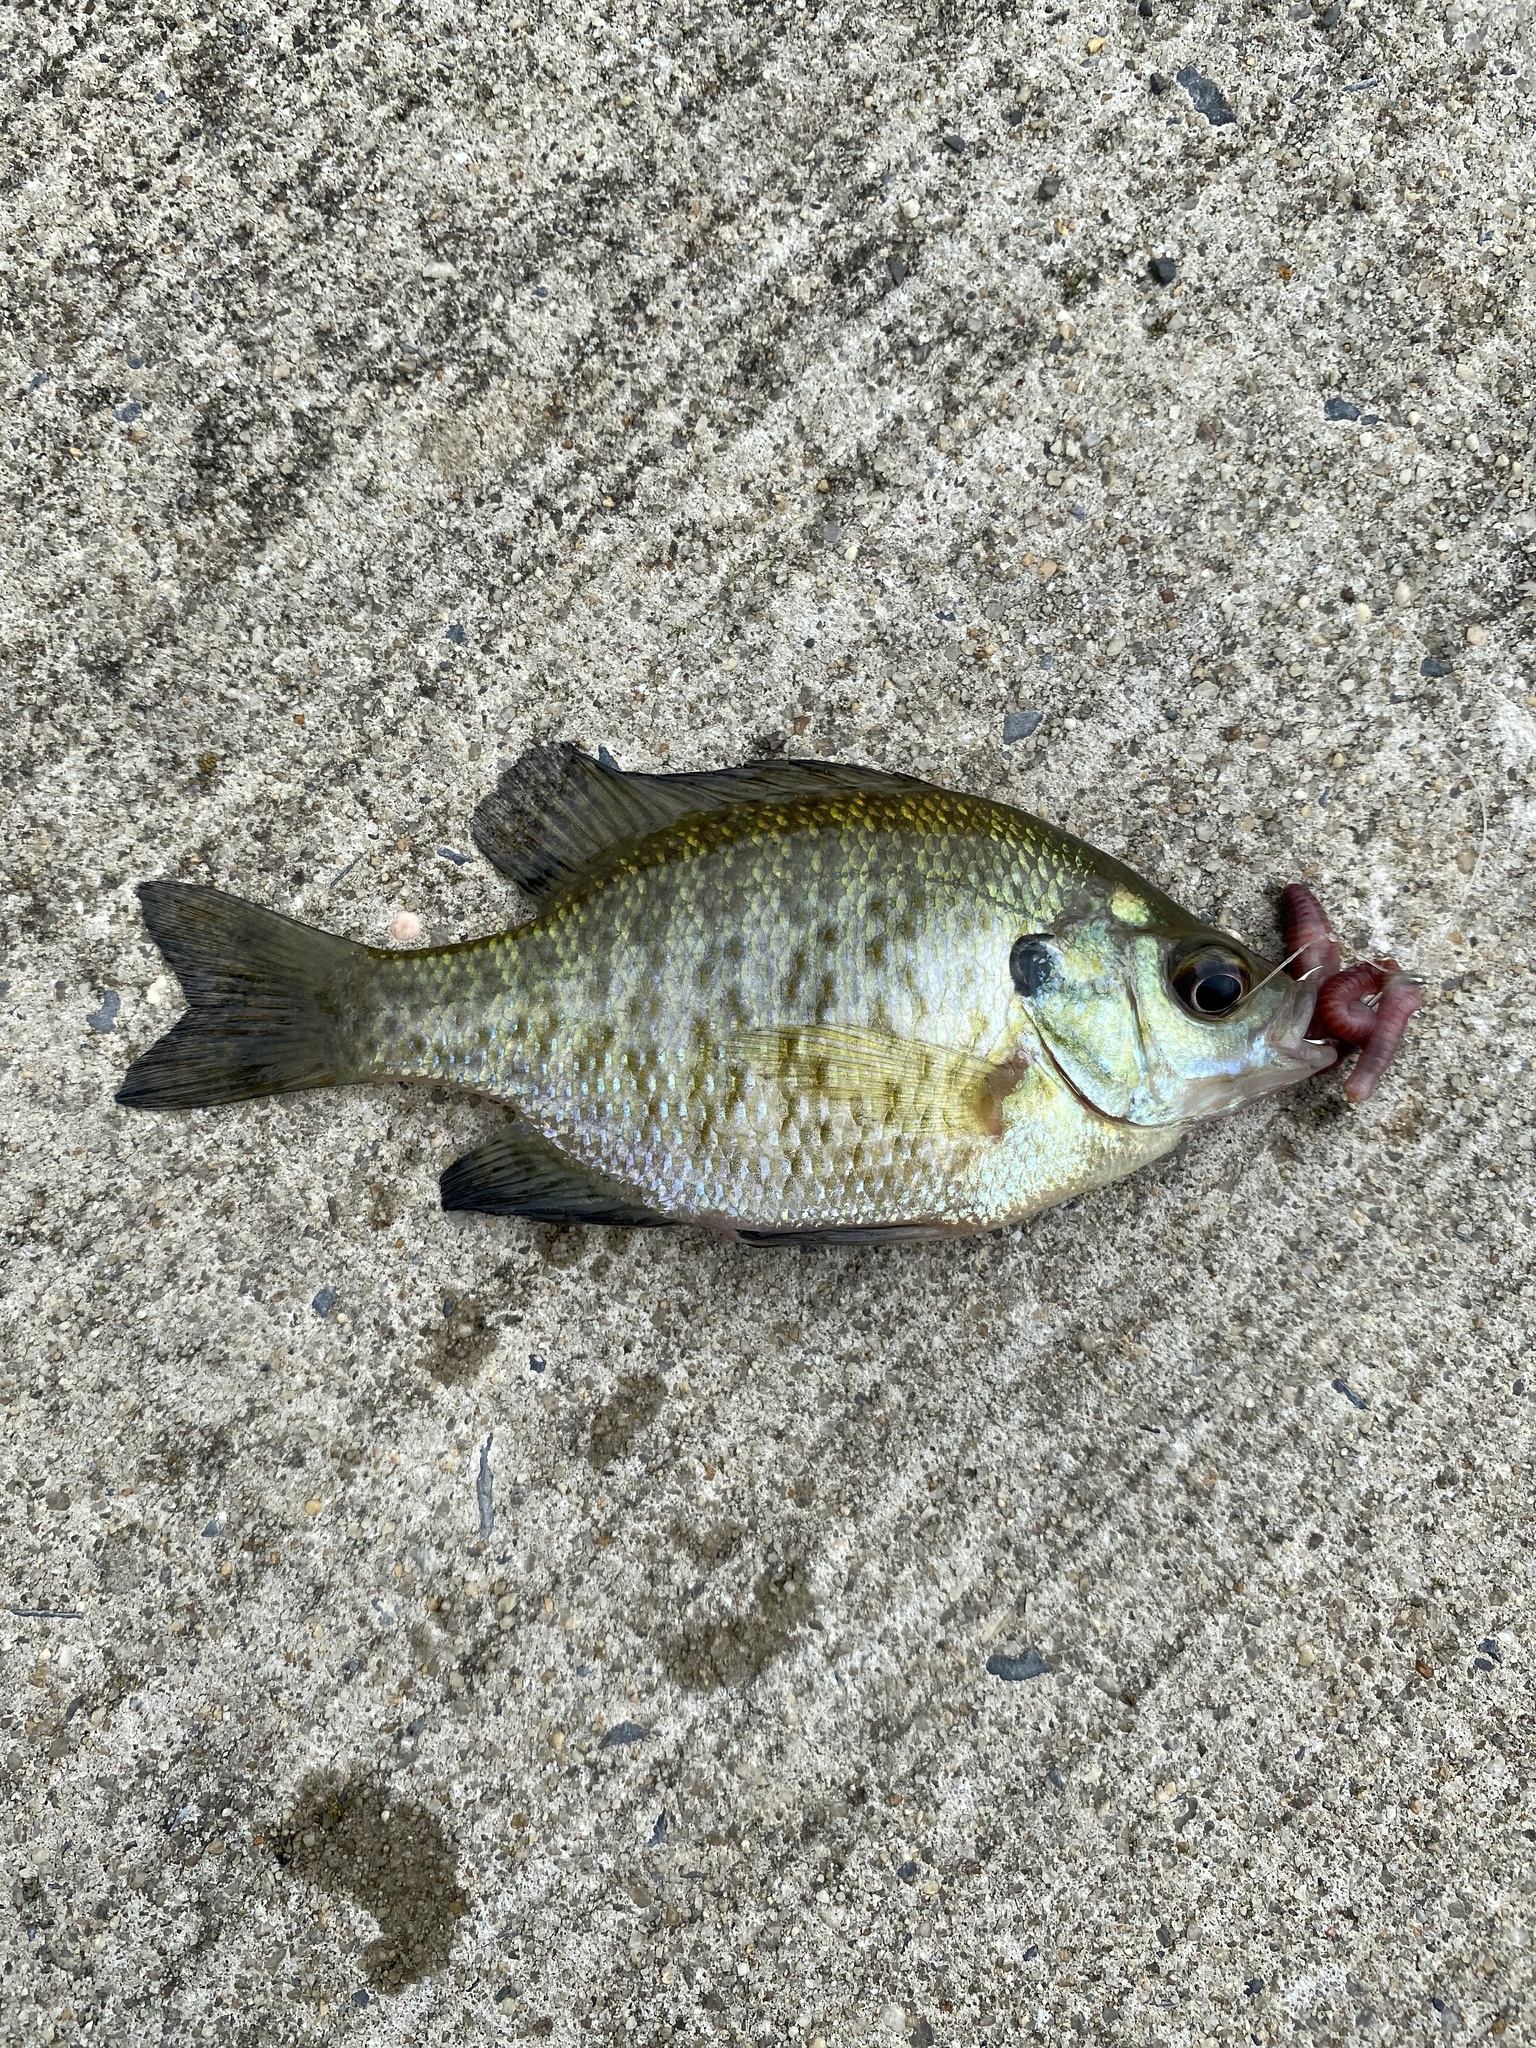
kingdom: Animalia
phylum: Chordata
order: Perciformes
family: Centrarchidae
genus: Lepomis
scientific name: Lepomis macrochirus
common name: Bluegill
